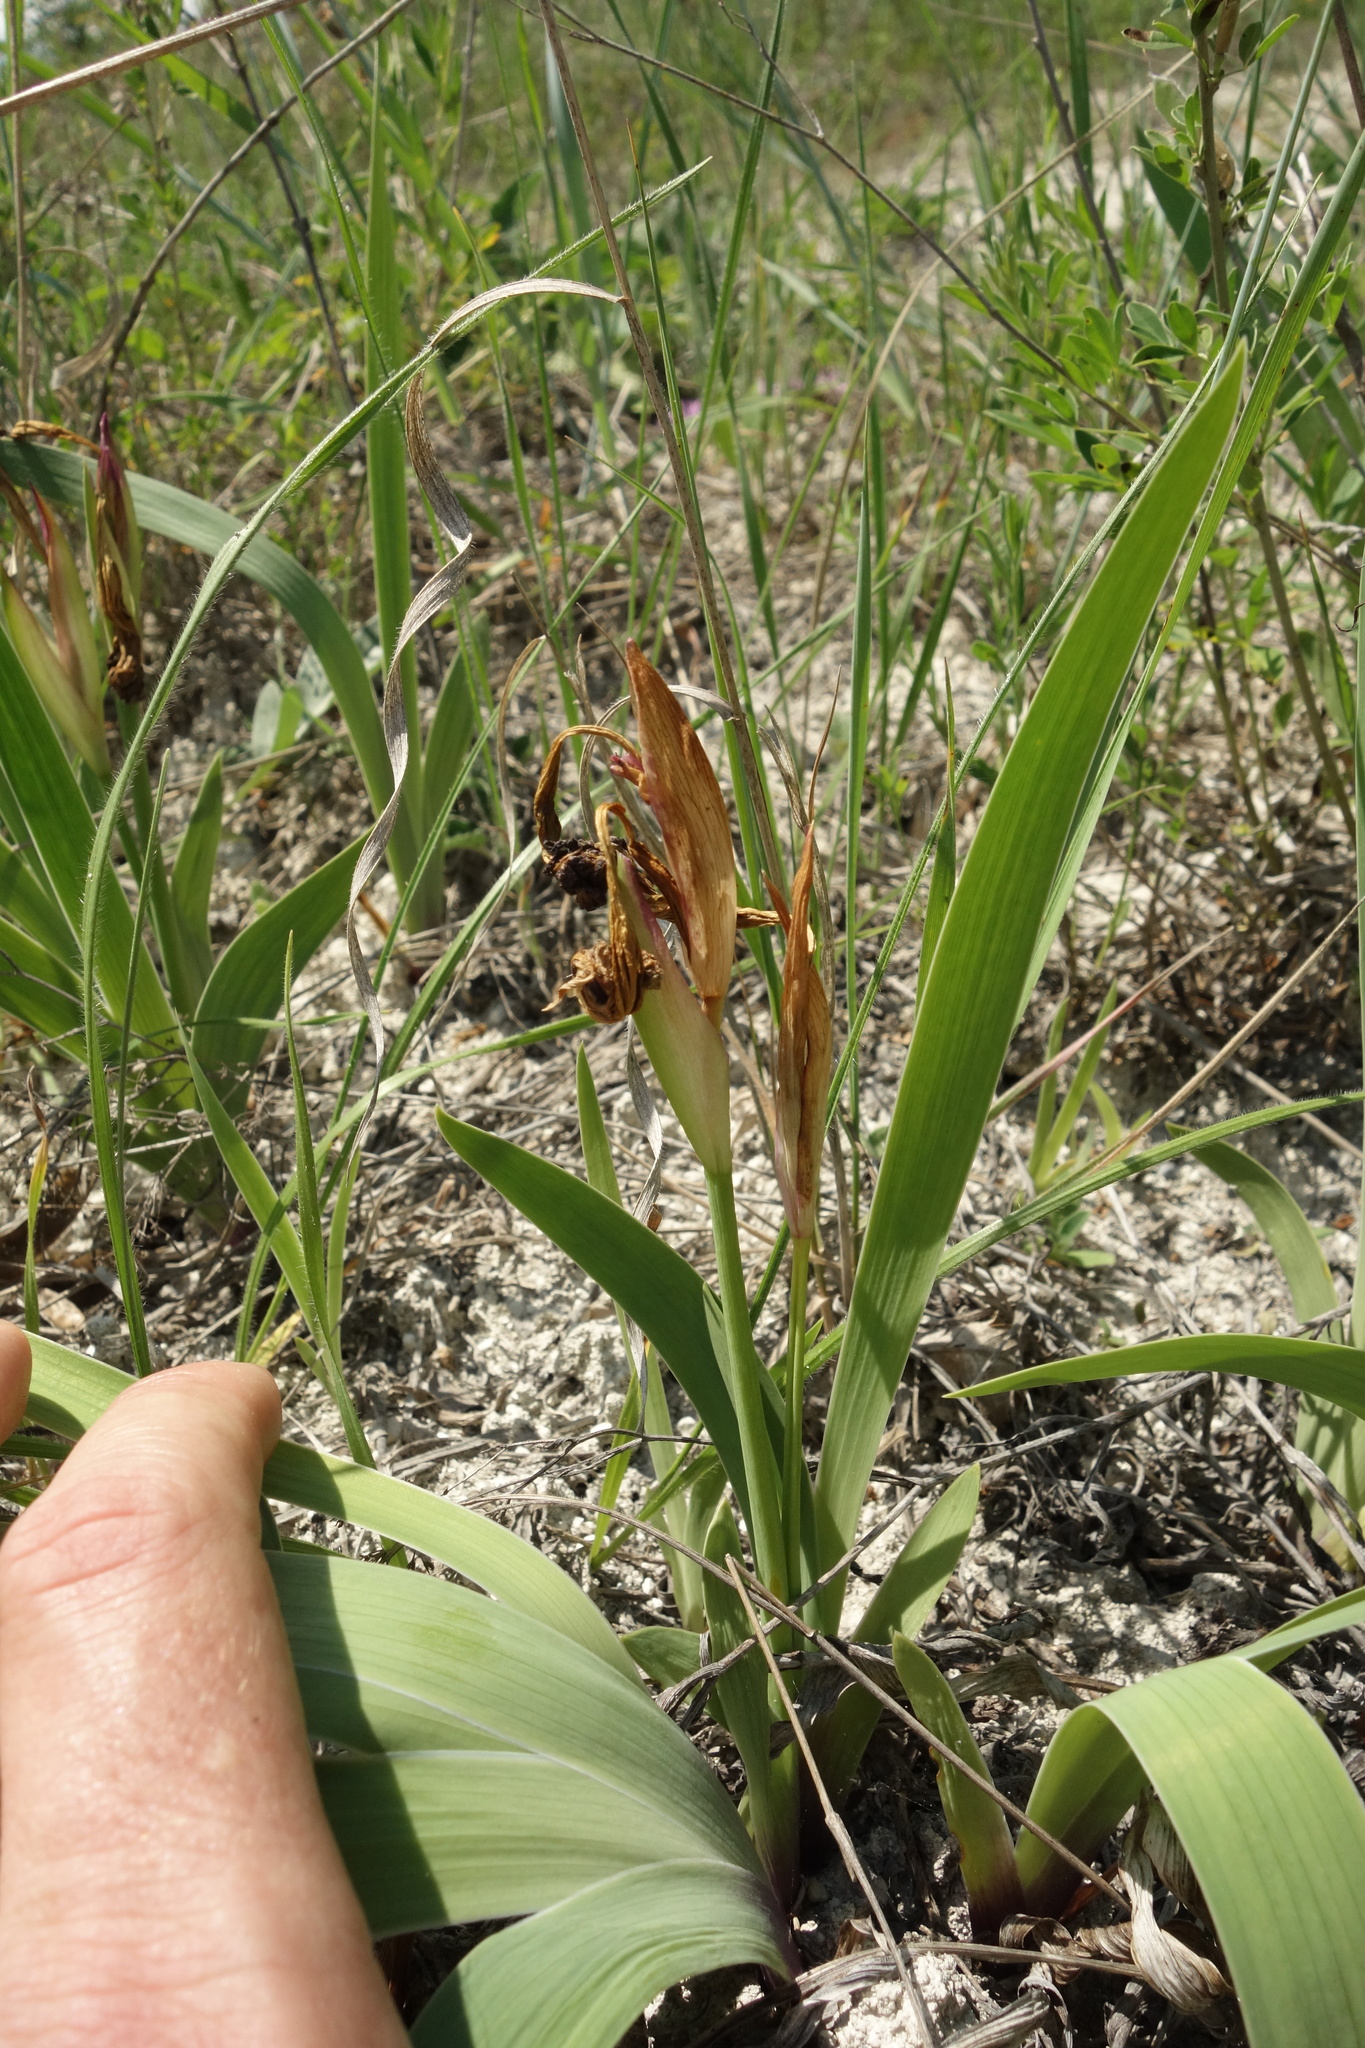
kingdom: Plantae
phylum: Tracheophyta
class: Liliopsida
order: Asparagales
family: Iridaceae
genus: Iris
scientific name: Iris aphylla
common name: Stool iris
